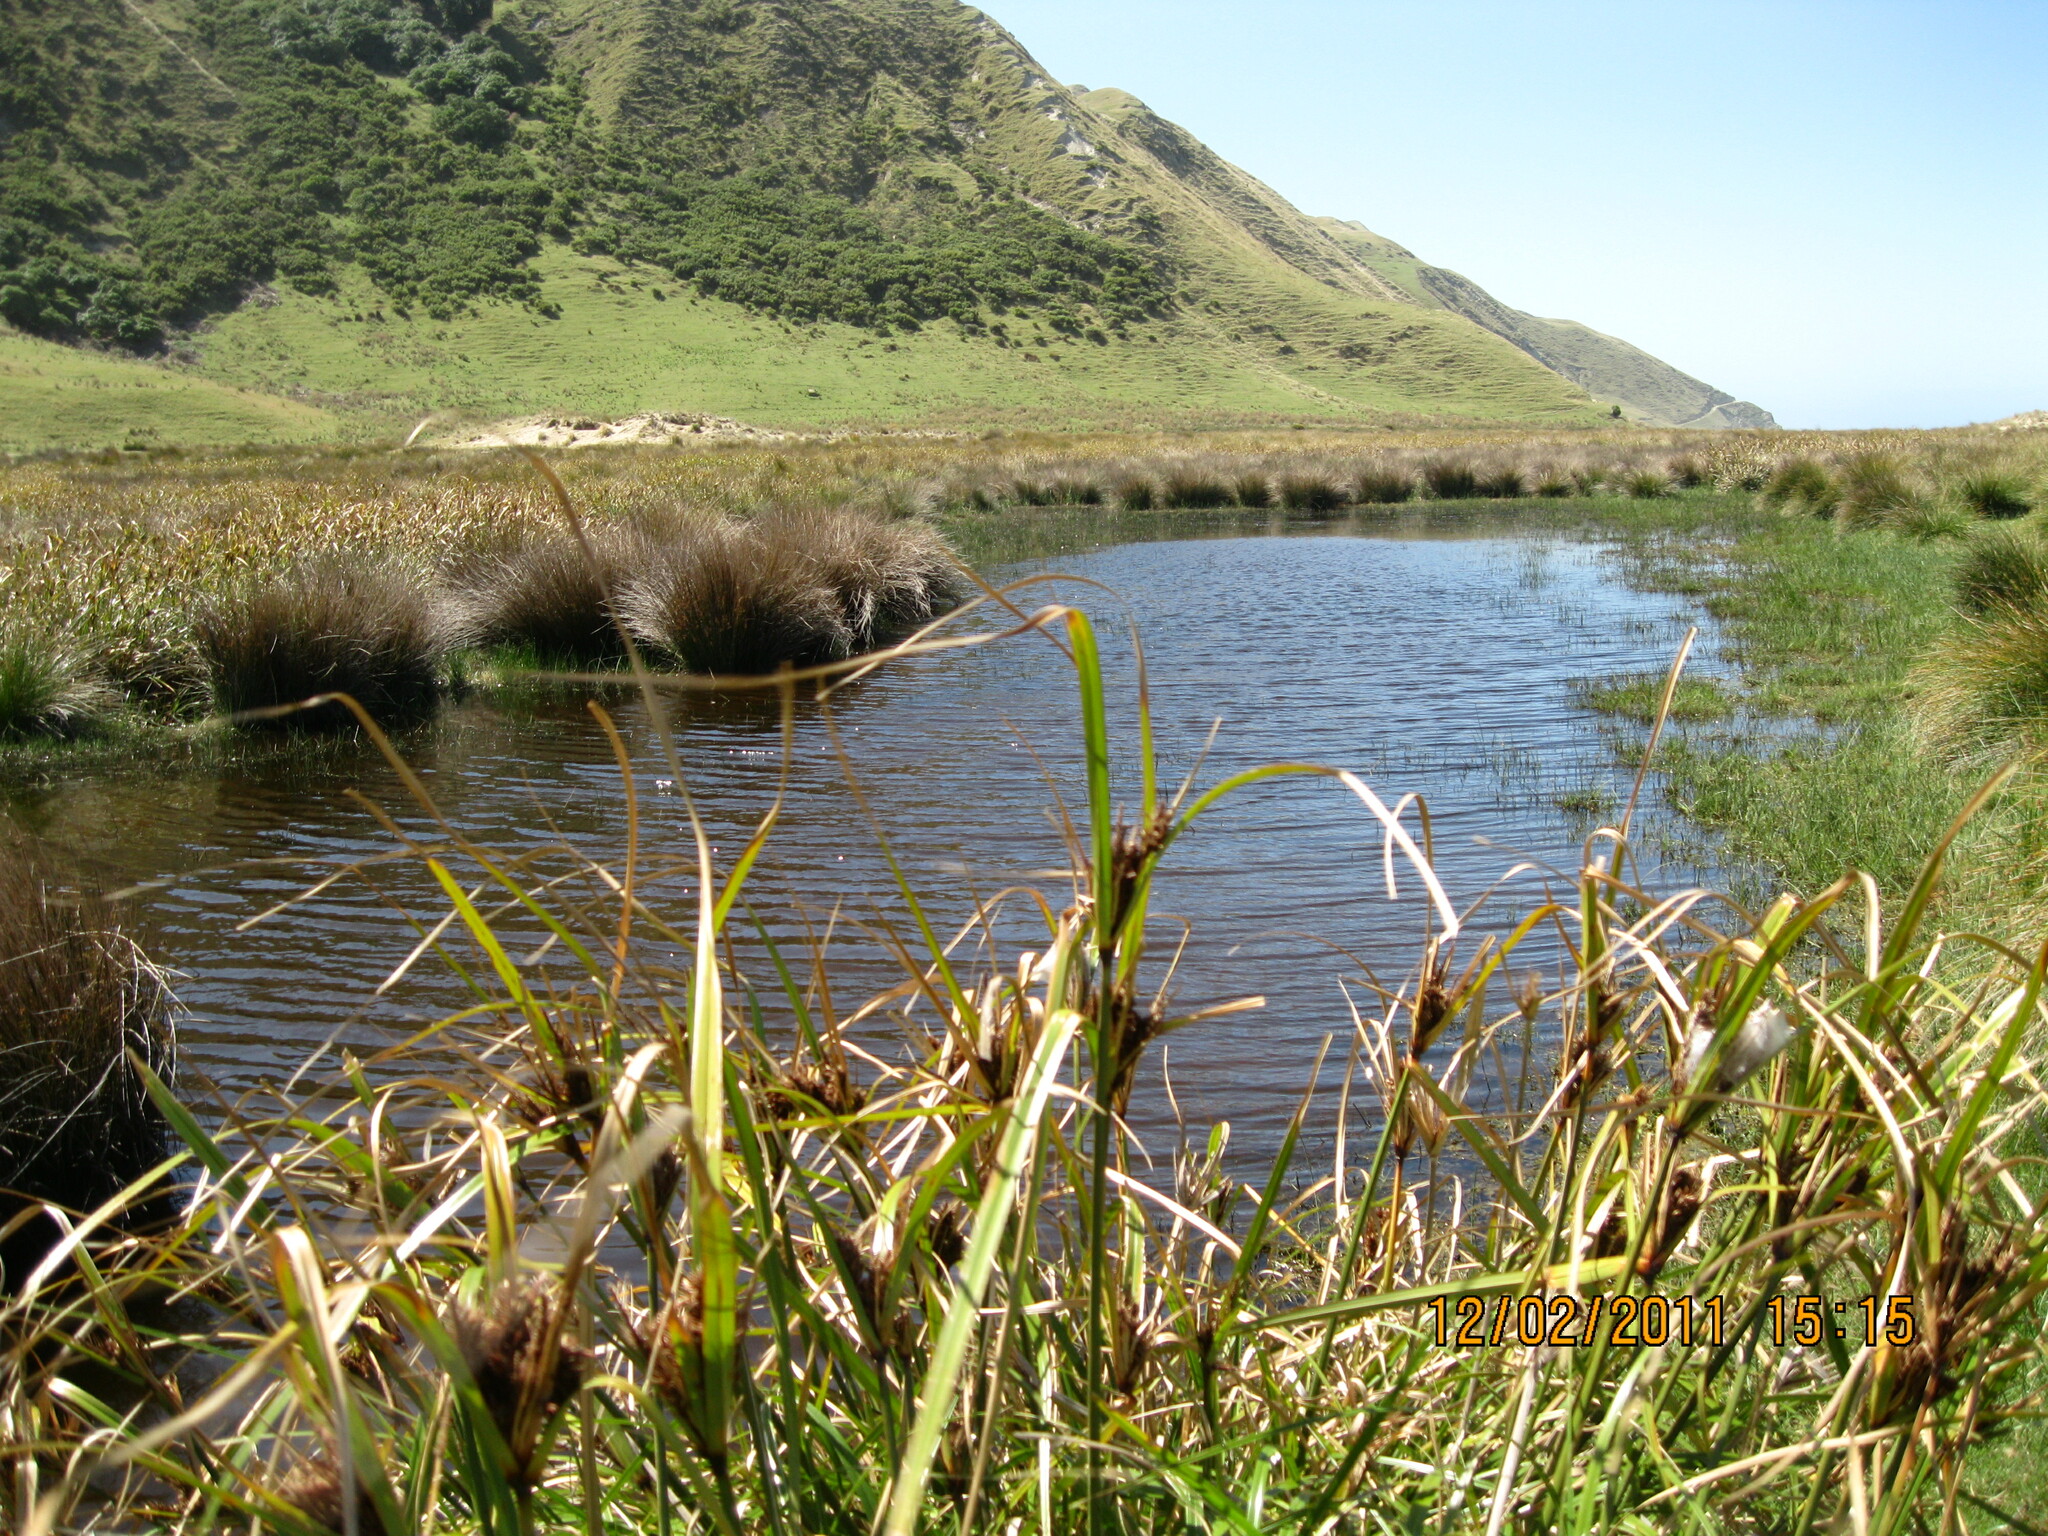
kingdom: Plantae
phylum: Tracheophyta
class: Liliopsida
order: Poales
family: Cyperaceae
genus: Cyperus
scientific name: Cyperus ustulatus
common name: Giant umbrella-sedge
